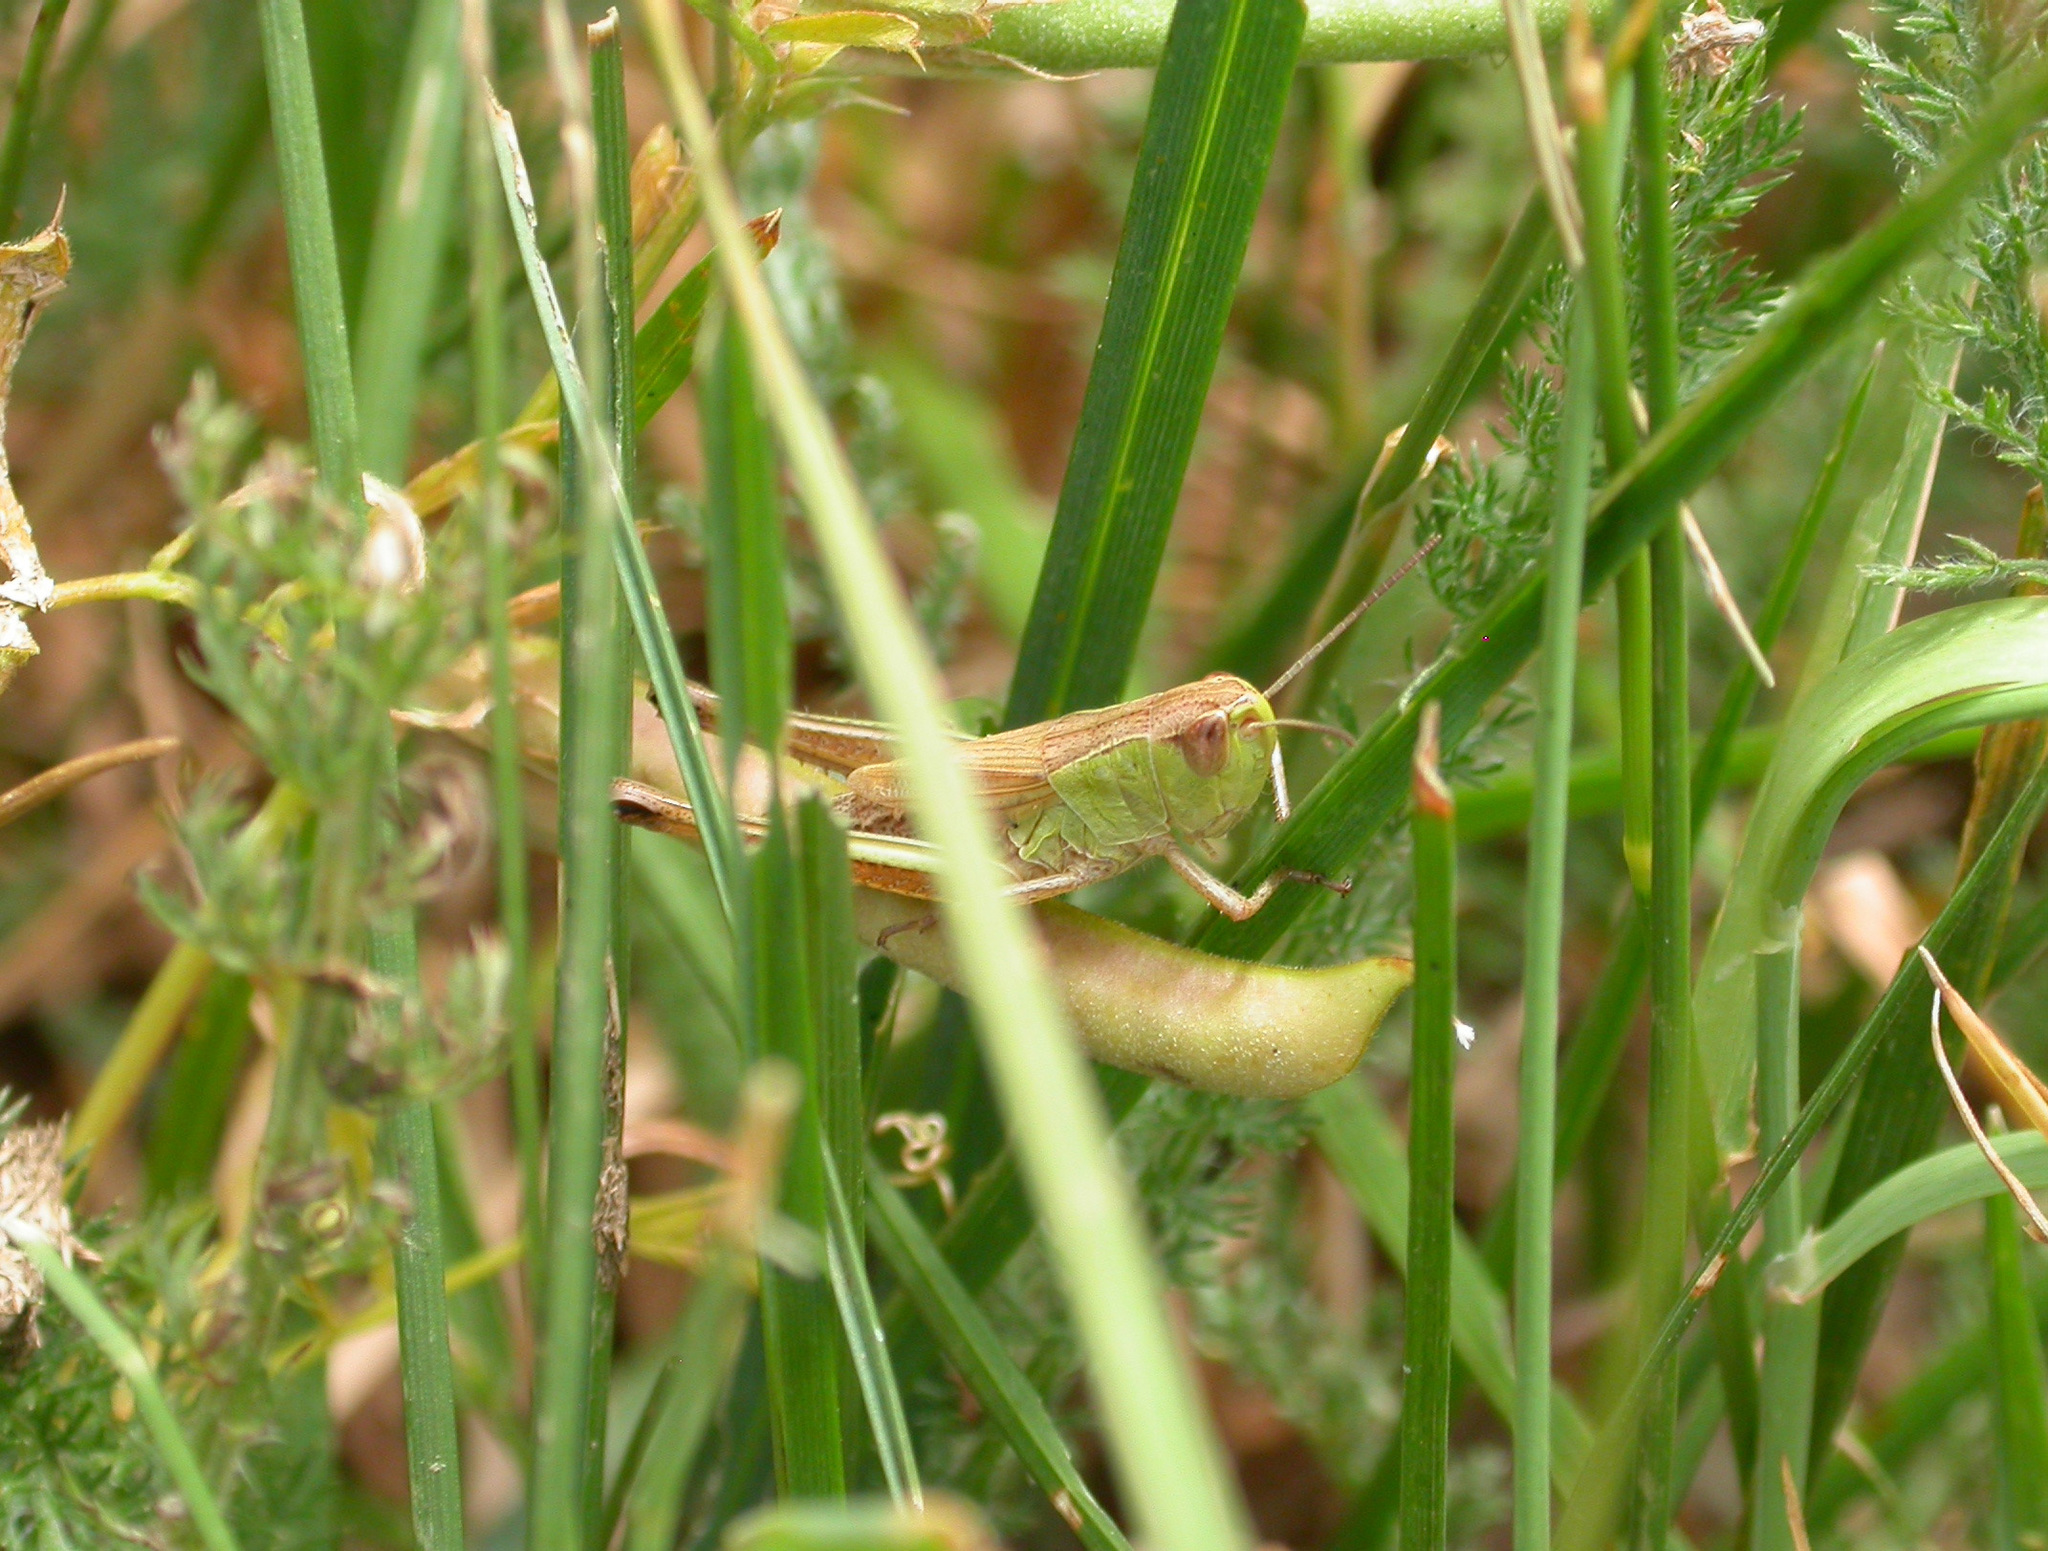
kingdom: Animalia
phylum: Arthropoda
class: Insecta
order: Orthoptera
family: Acrididae
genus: Pseudochorthippus
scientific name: Pseudochorthippus parallelus
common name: Meadow grasshopper
